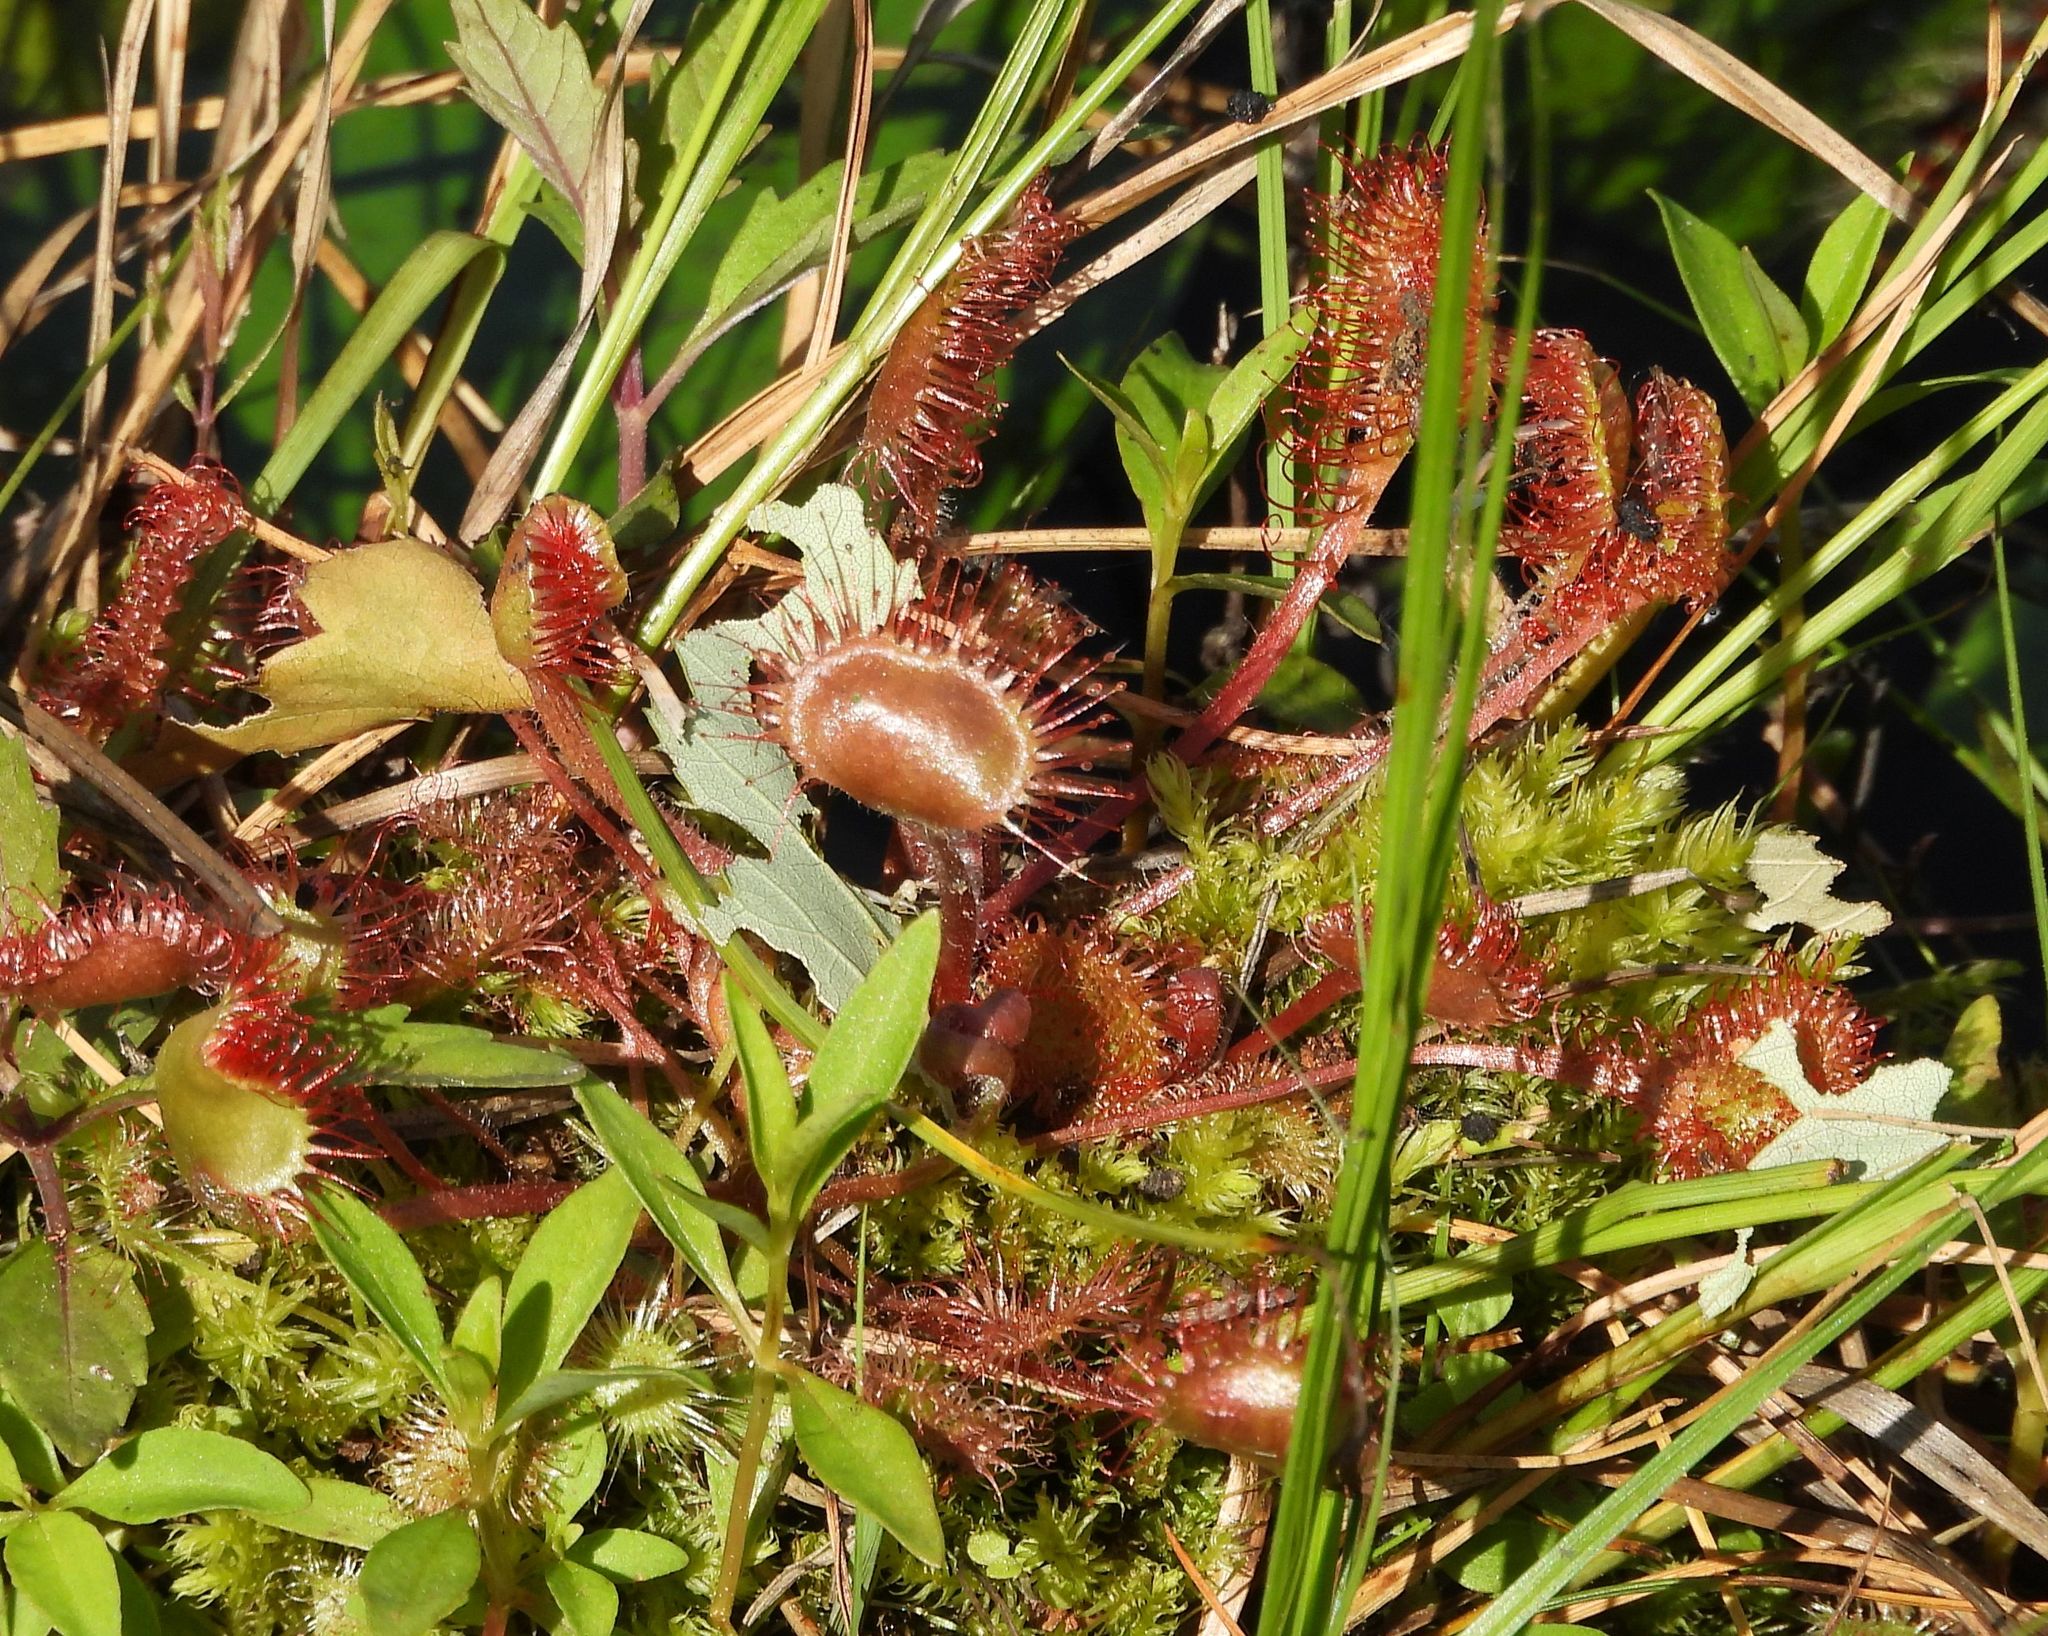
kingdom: Plantae
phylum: Tracheophyta
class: Magnoliopsida
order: Caryophyllales
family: Droseraceae
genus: Drosera
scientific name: Drosera rotundifolia
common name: Round-leaved sundew
